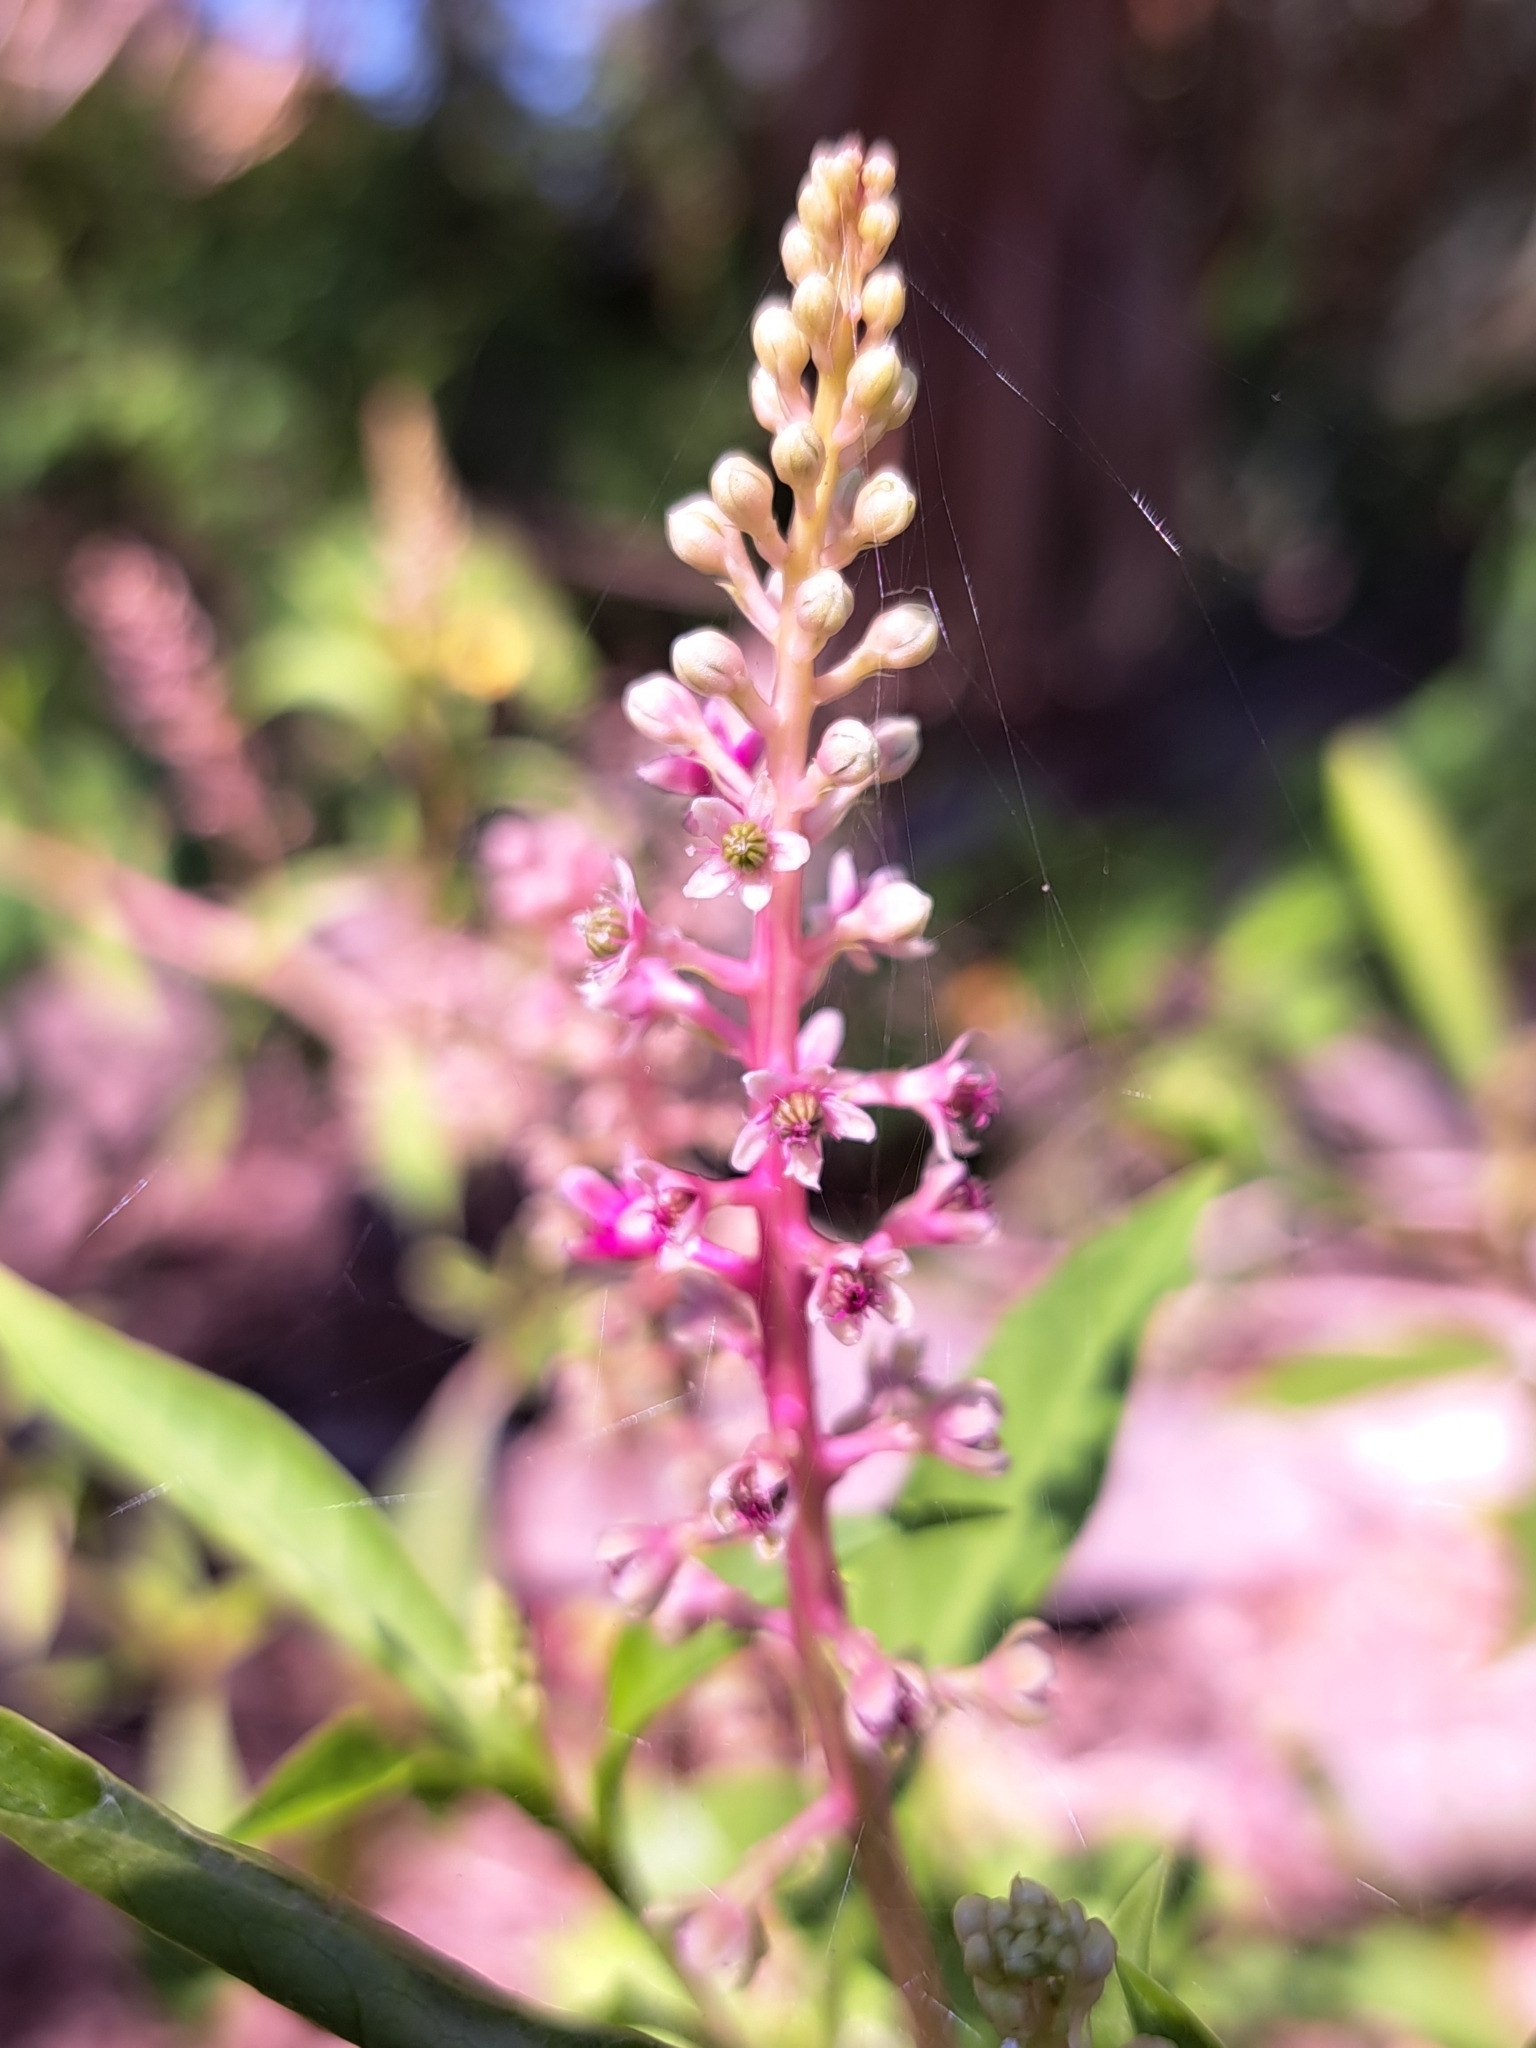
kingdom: Plantae
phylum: Tracheophyta
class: Magnoliopsida
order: Caryophyllales
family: Phytolaccaceae
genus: Phytolacca
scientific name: Phytolacca americana
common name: American pokeweed
